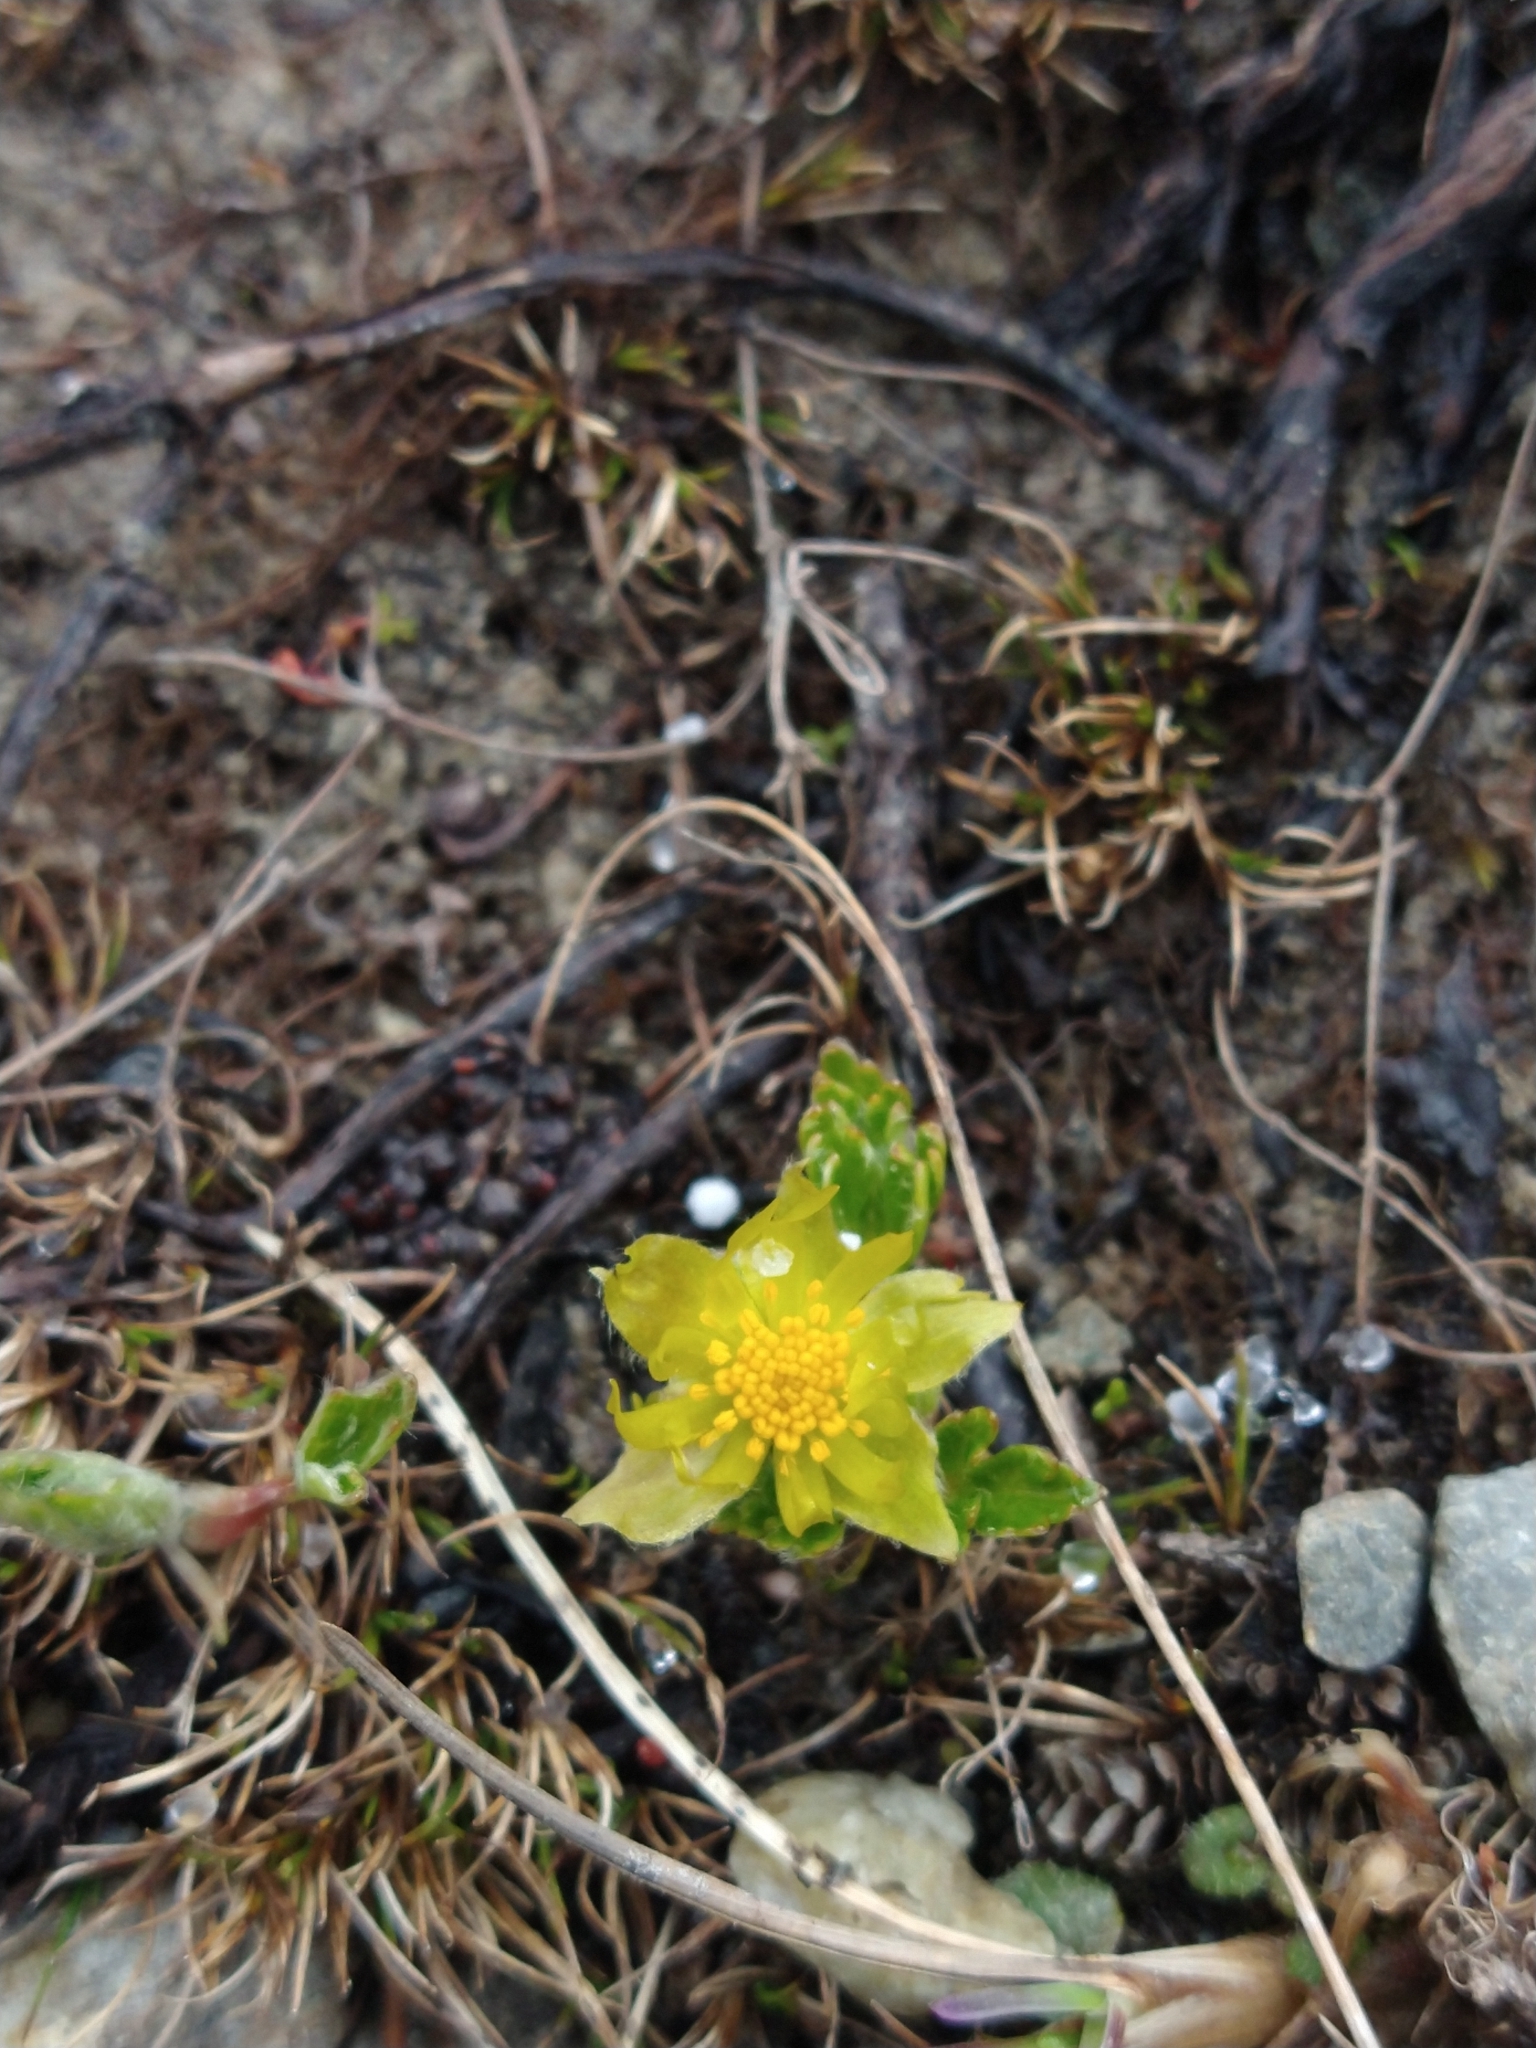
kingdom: Plantae
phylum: Tracheophyta
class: Magnoliopsida
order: Ranunculales
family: Ranunculaceae
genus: Hamadryas
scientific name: Hamadryas magellanica
